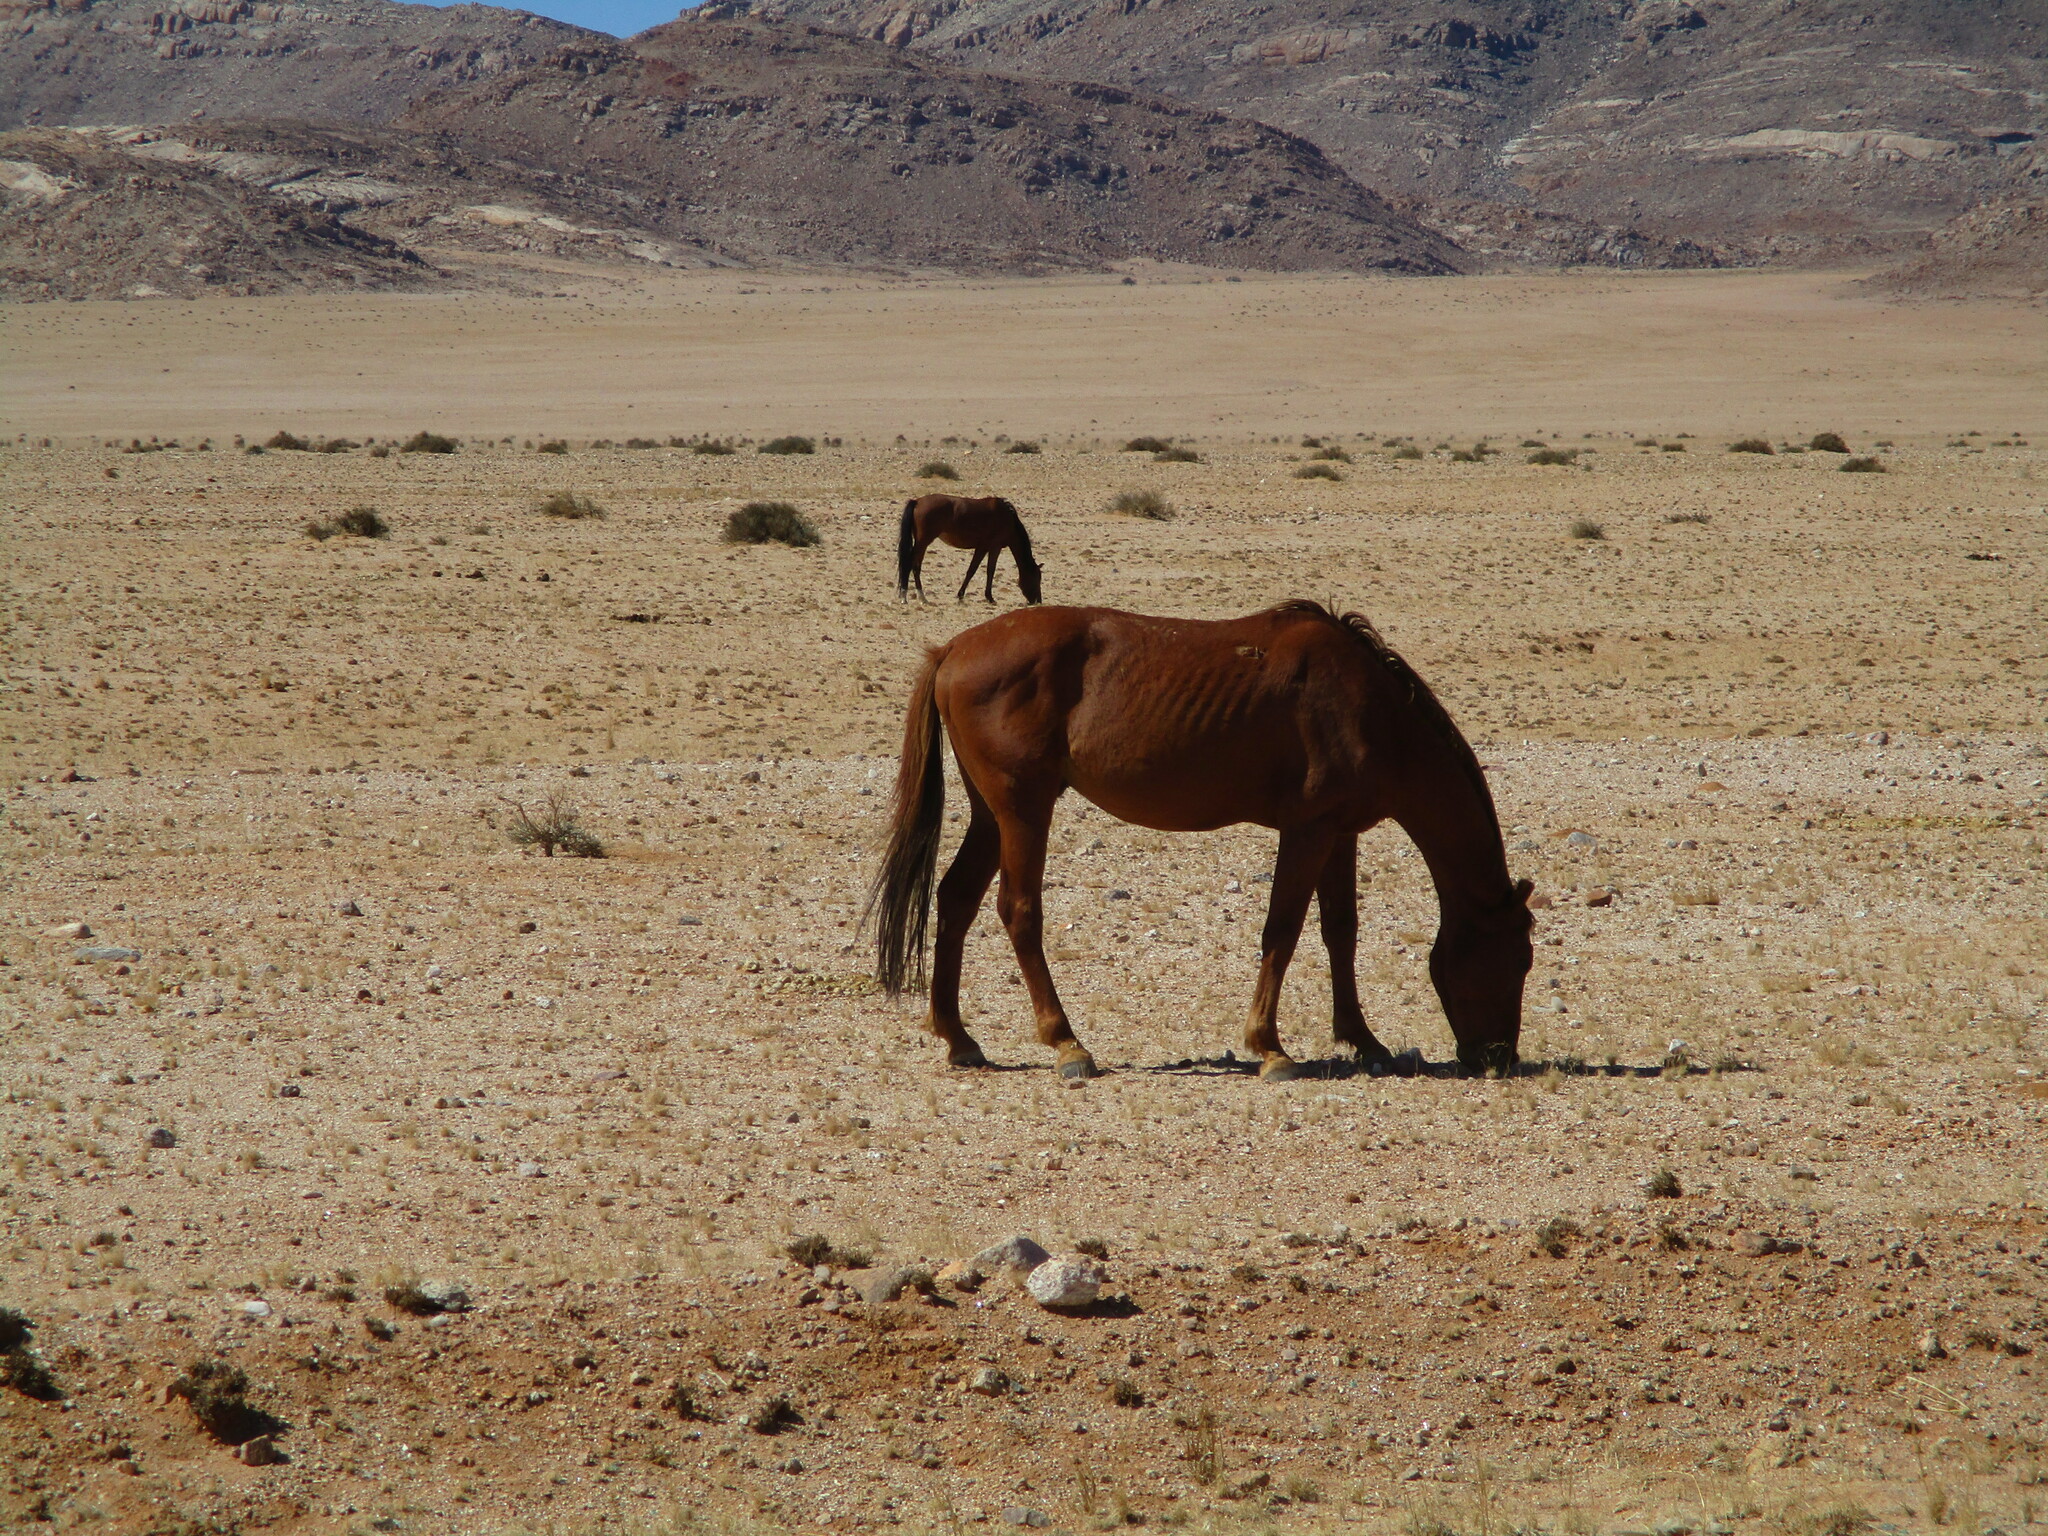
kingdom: Animalia
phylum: Chordata
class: Mammalia
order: Perissodactyla
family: Equidae
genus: Equus
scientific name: Equus caballus
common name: Horse
